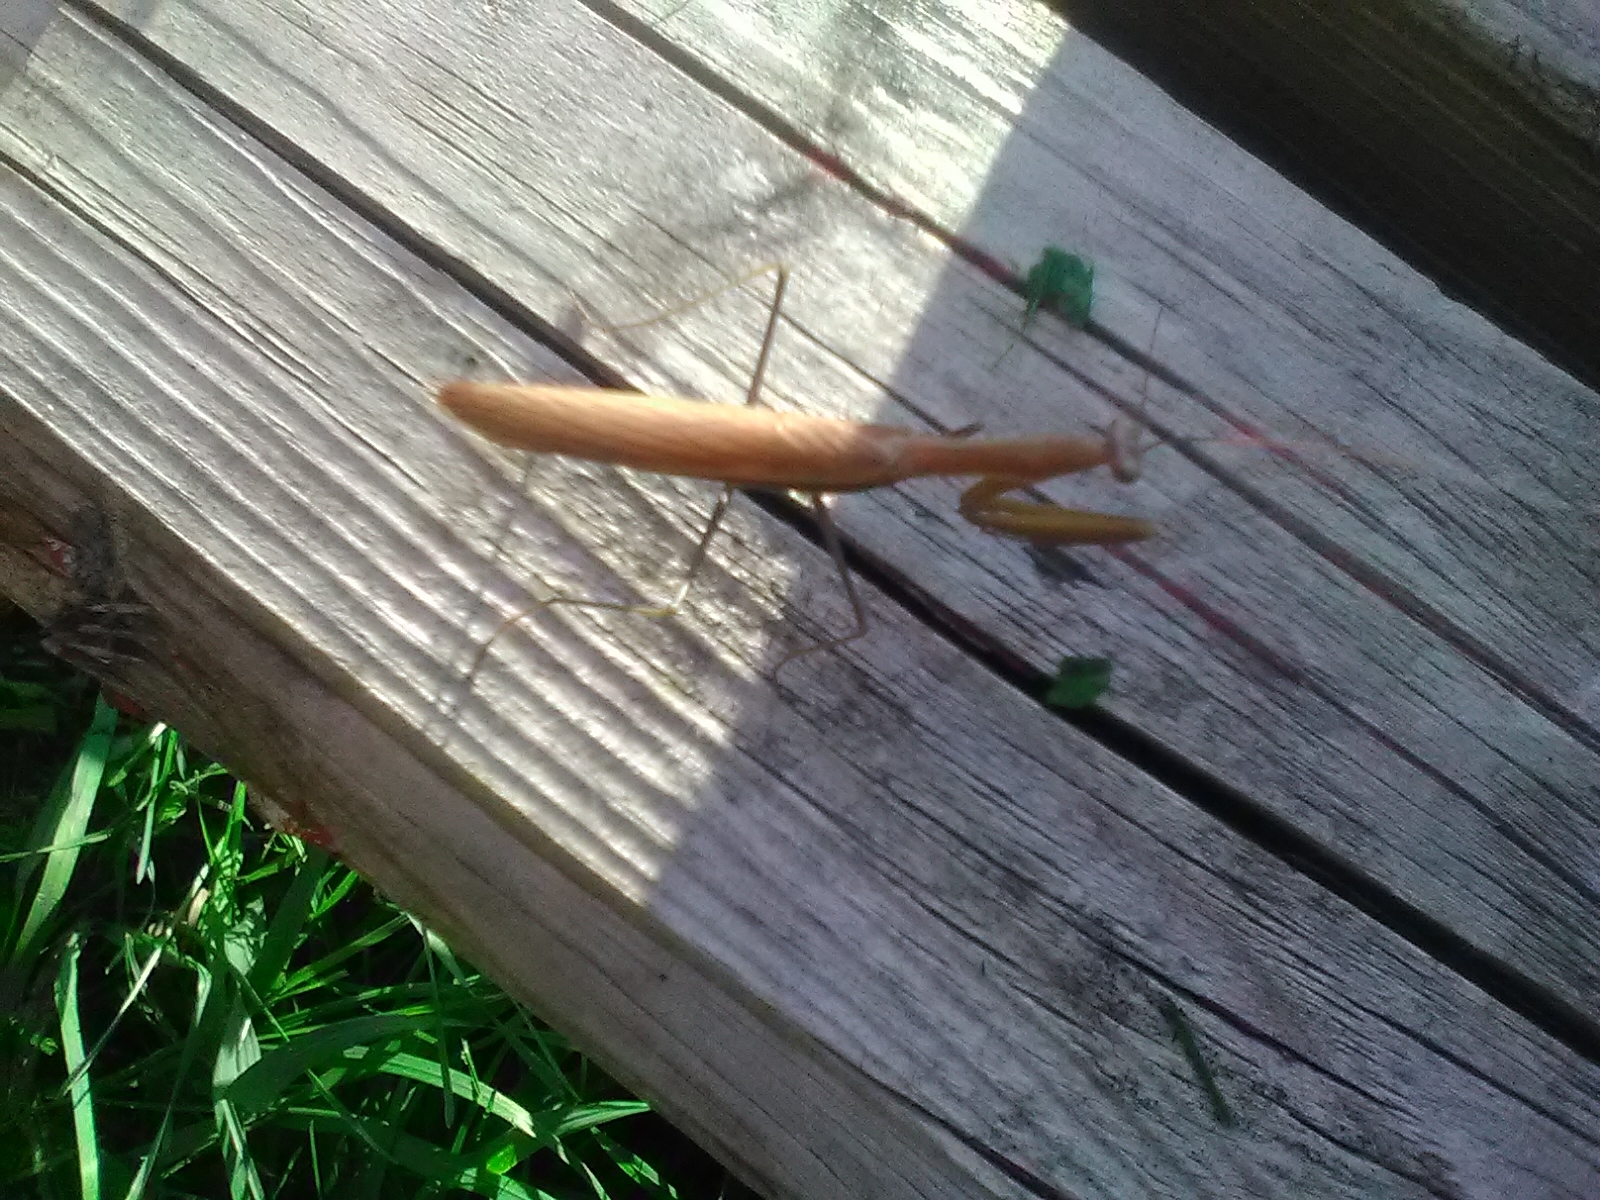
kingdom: Animalia
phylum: Arthropoda
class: Insecta
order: Mantodea
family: Mantidae
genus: Mantis
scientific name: Mantis religiosa
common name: Praying mantis
